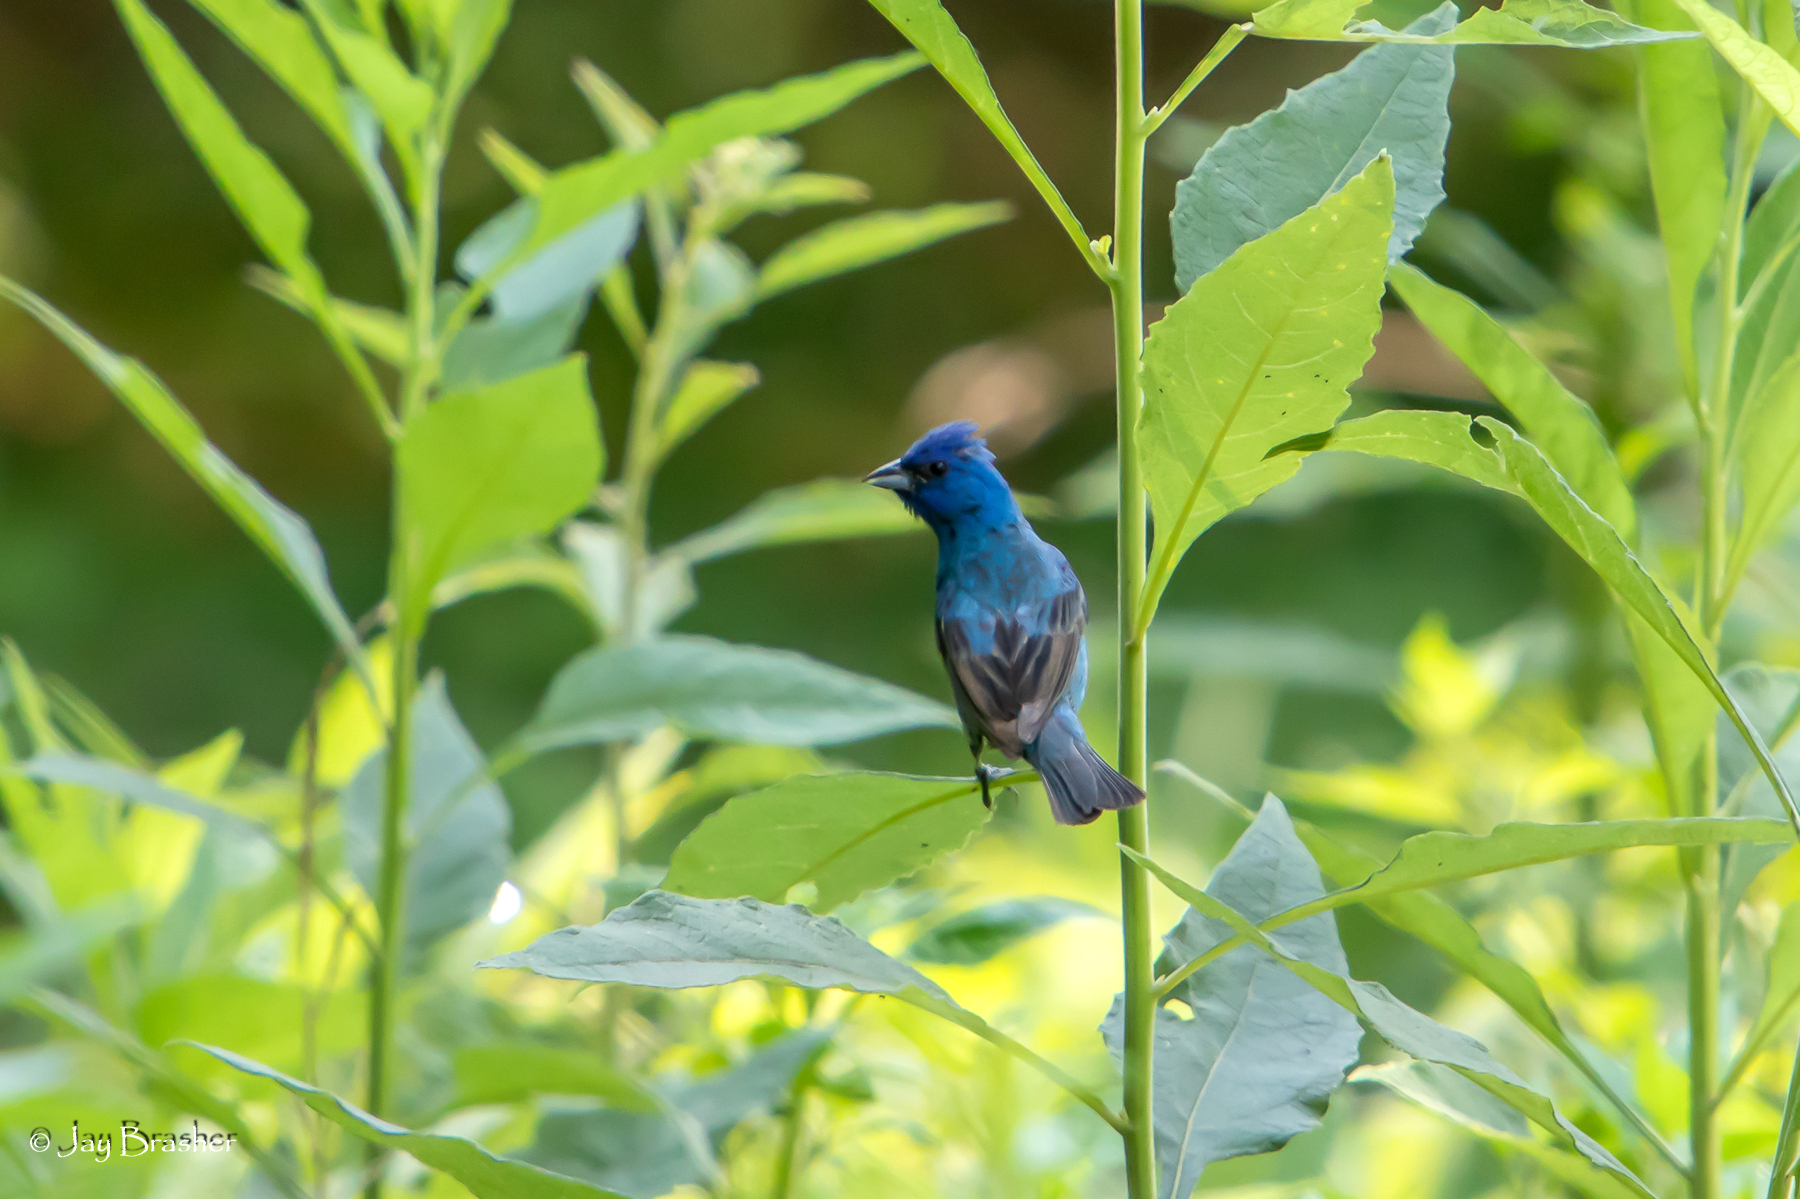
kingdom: Animalia
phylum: Chordata
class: Aves
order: Passeriformes
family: Cardinalidae
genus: Passerina
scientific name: Passerina cyanea
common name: Indigo bunting
